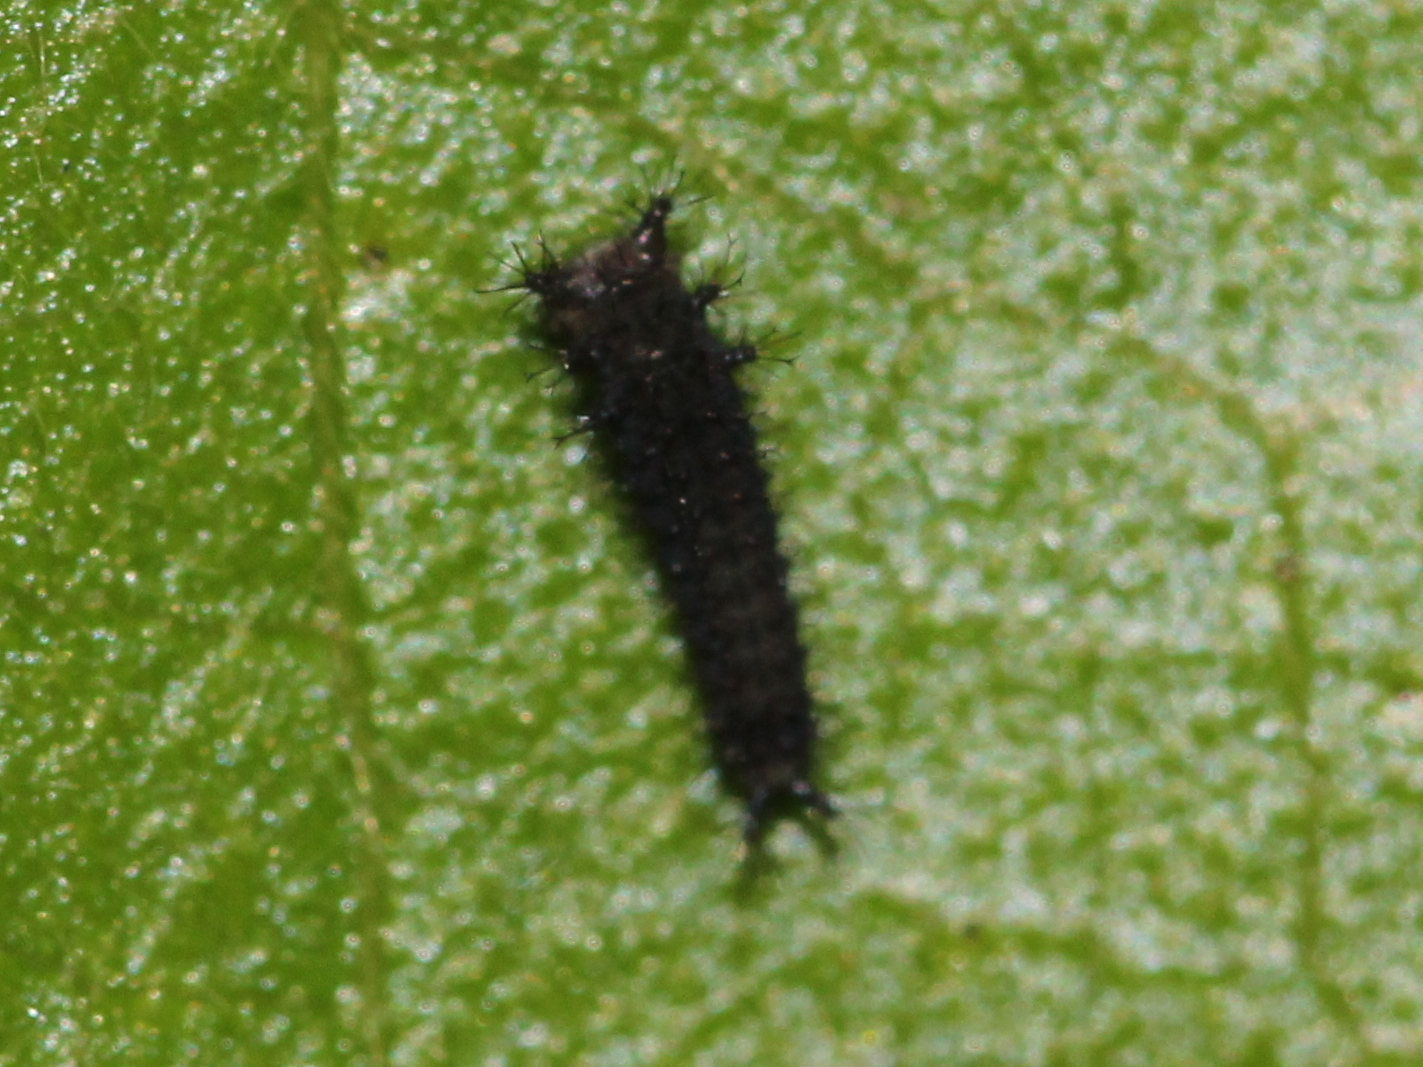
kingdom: Animalia
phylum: Arthropoda
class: Insecta
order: Lepidoptera
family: Papilionidae
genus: Graphium
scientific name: Graphium nomius
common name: Spot swordtail
